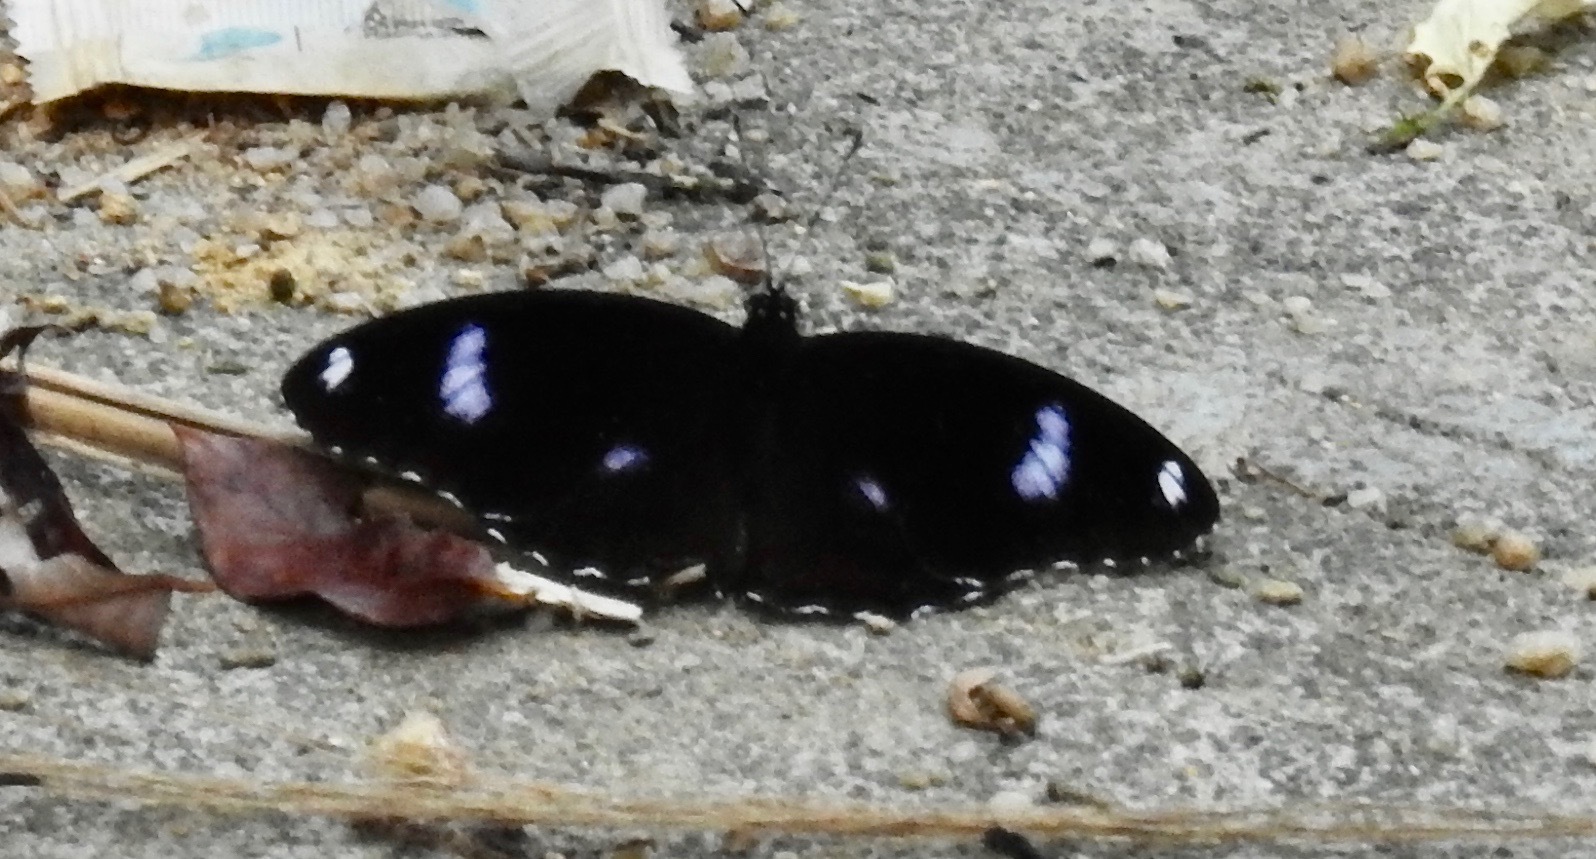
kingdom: Animalia
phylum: Arthropoda
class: Insecta
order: Lepidoptera
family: Nymphalidae
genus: Hypolimnas
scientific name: Hypolimnas bolina
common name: Great eggfly
